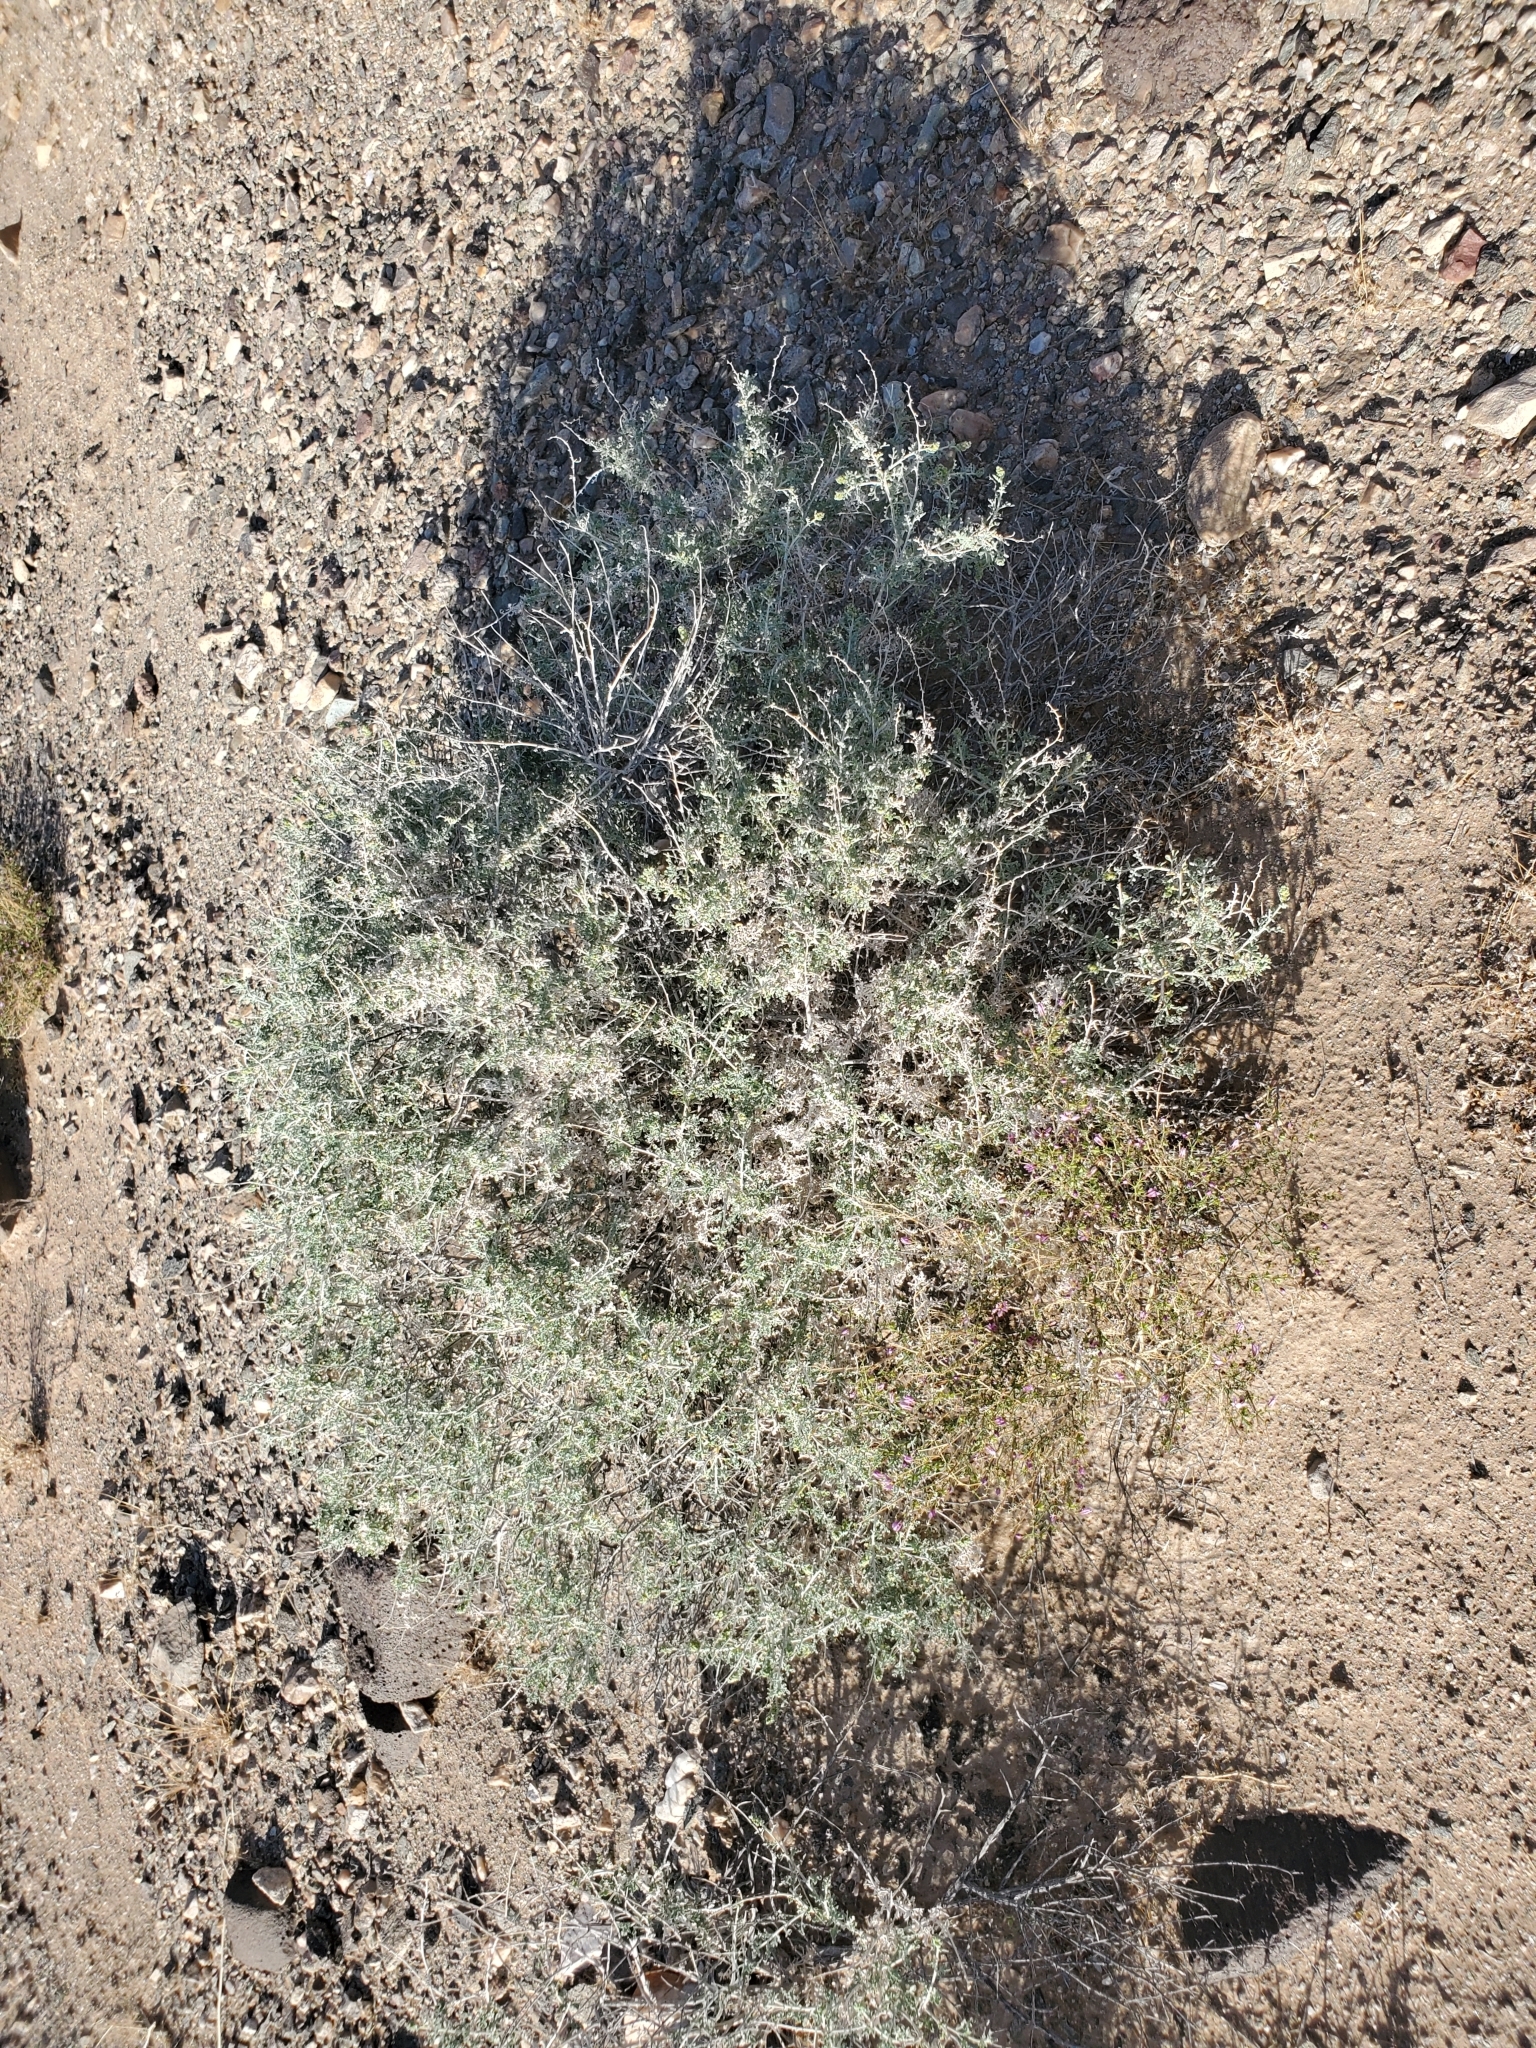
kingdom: Plantae
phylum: Tracheophyta
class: Magnoliopsida
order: Asterales
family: Asteraceae
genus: Ambrosia
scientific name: Ambrosia dumosa
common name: Bur-sage
